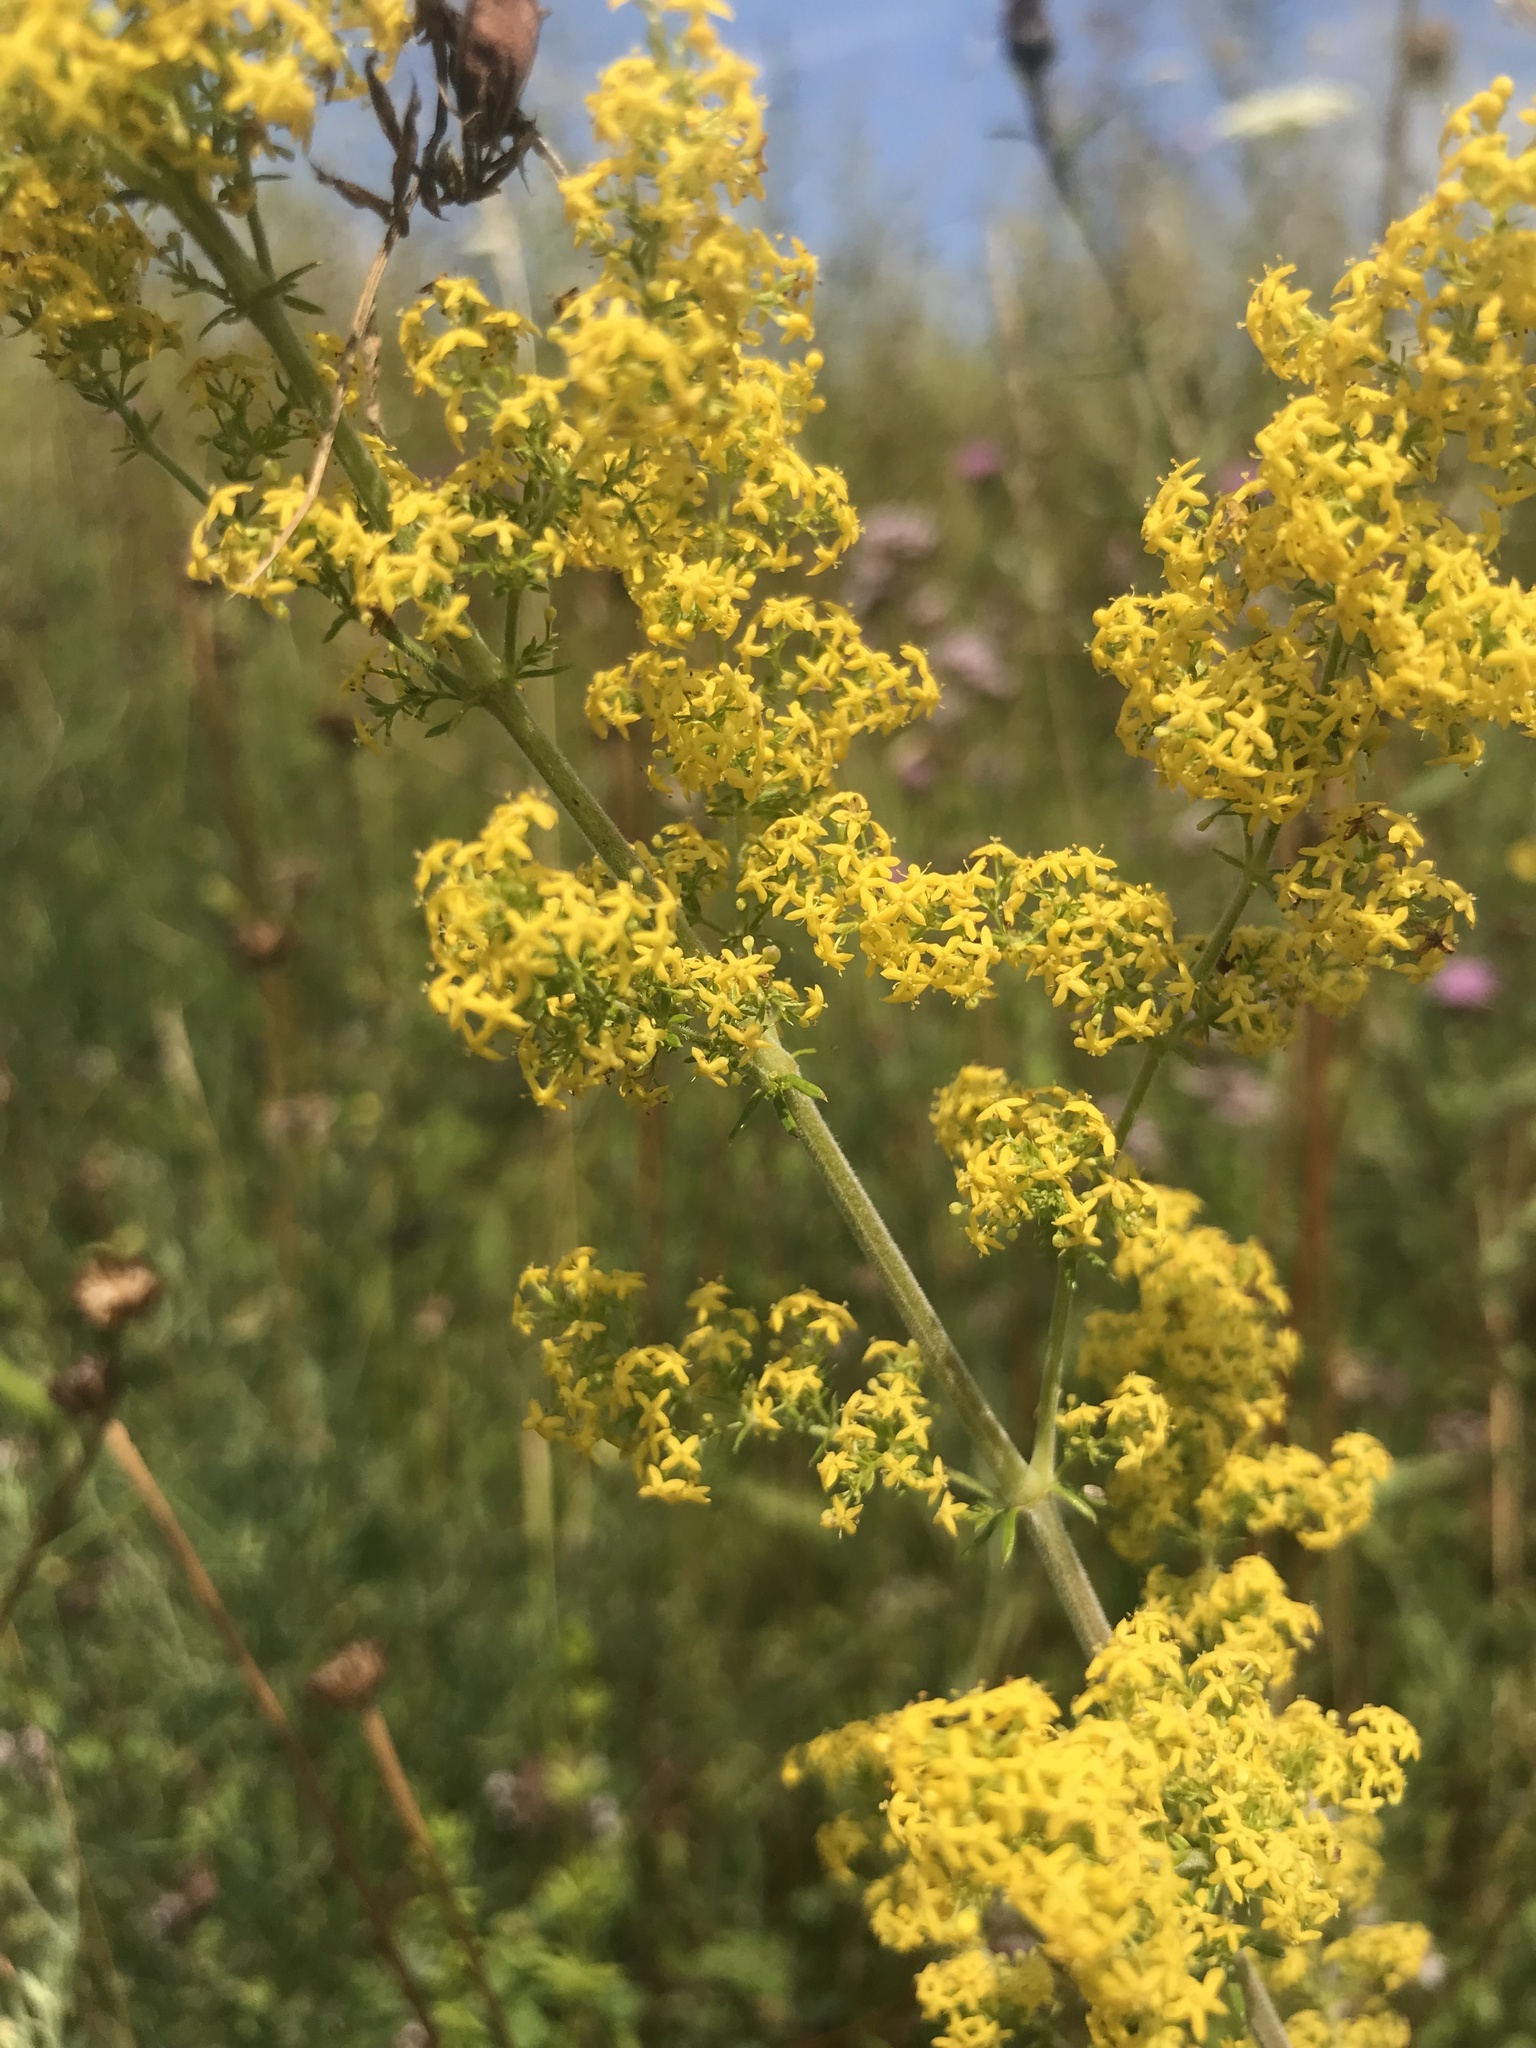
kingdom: Plantae
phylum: Tracheophyta
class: Magnoliopsida
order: Gentianales
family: Rubiaceae
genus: Galium
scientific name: Galium verum
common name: Lady's bedstraw
